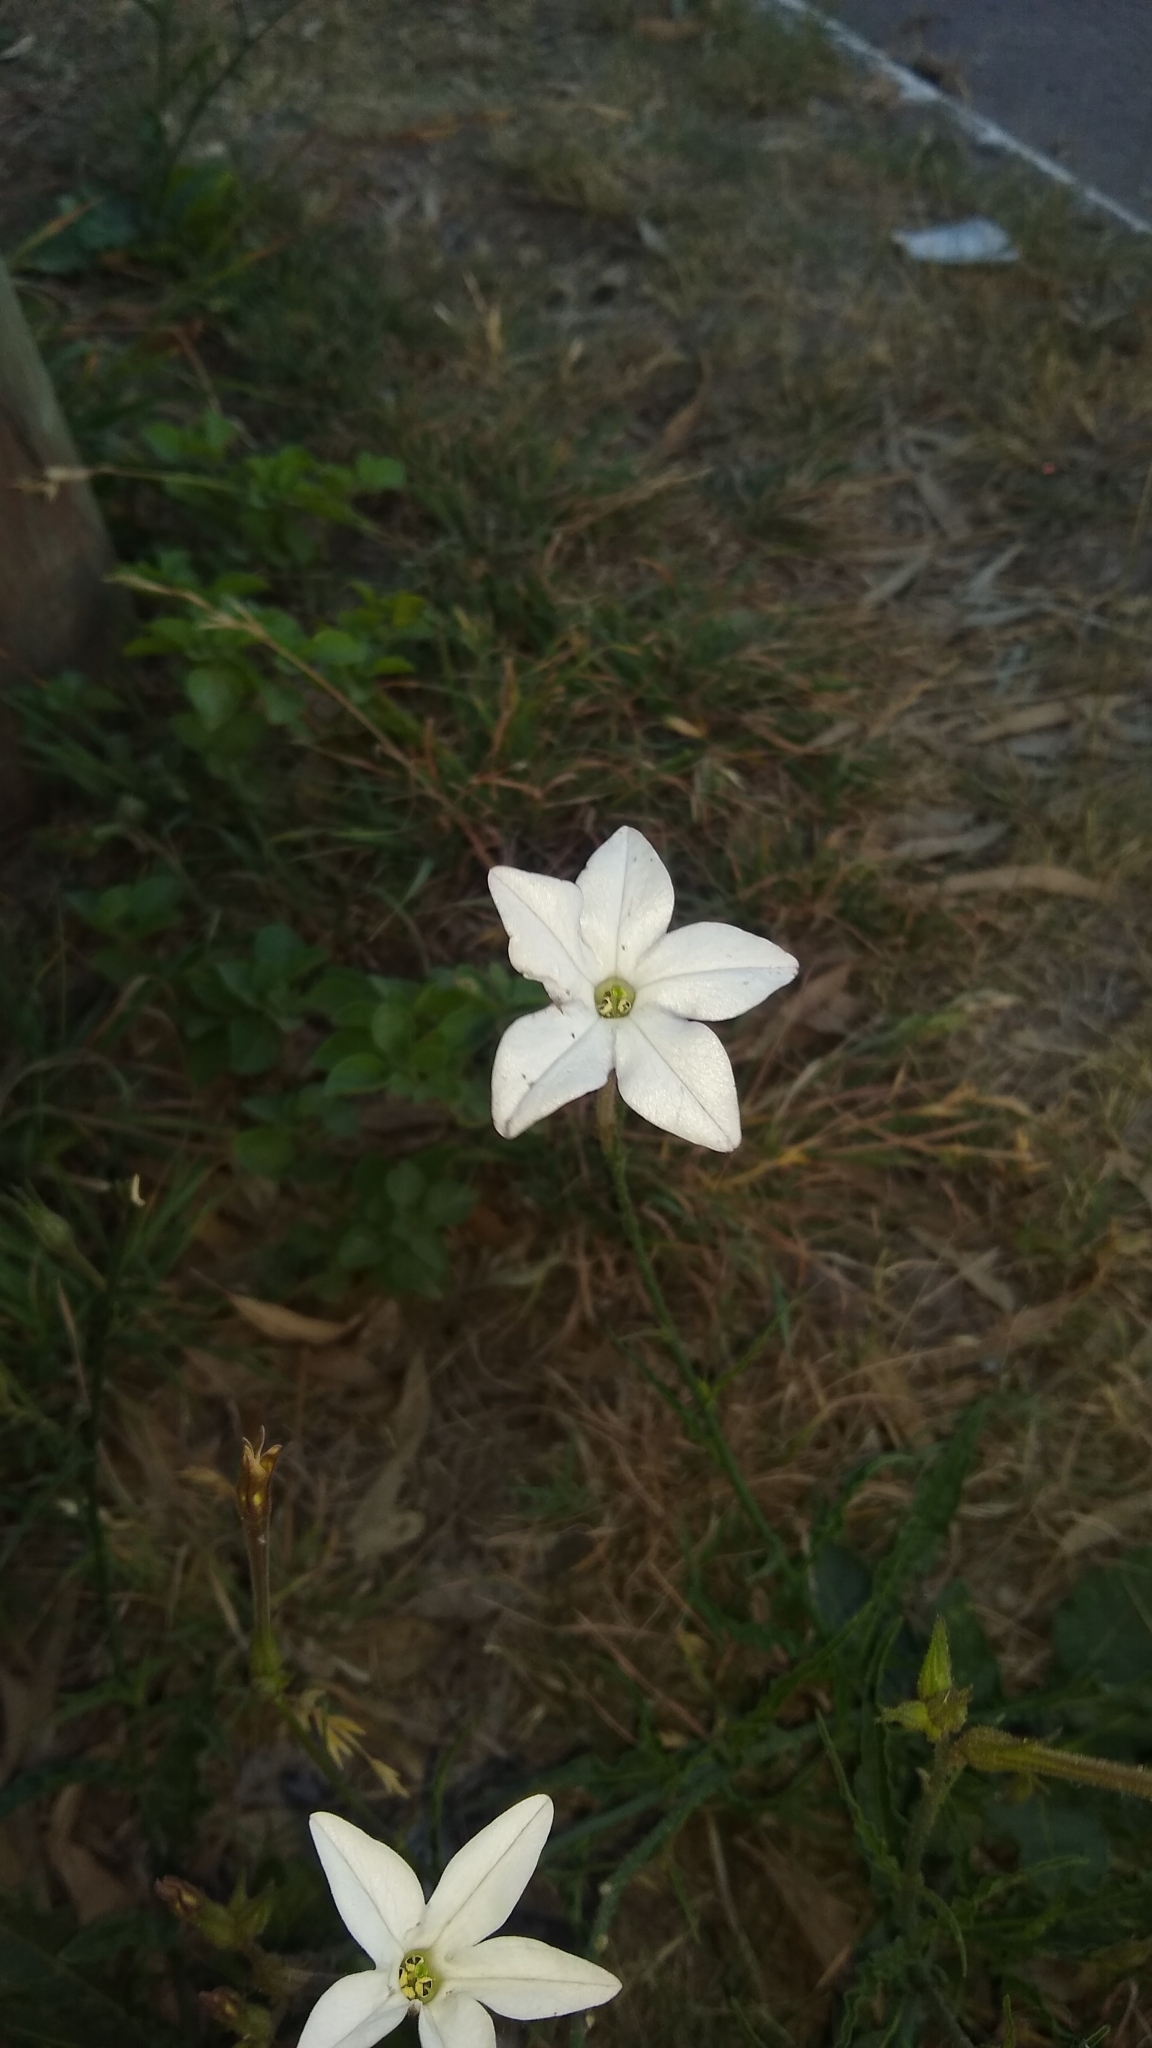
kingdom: Plantae
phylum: Tracheophyta
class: Magnoliopsida
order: Solanales
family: Solanaceae
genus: Nicotiana
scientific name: Nicotiana longiflora
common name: Long-flowered tobacco
